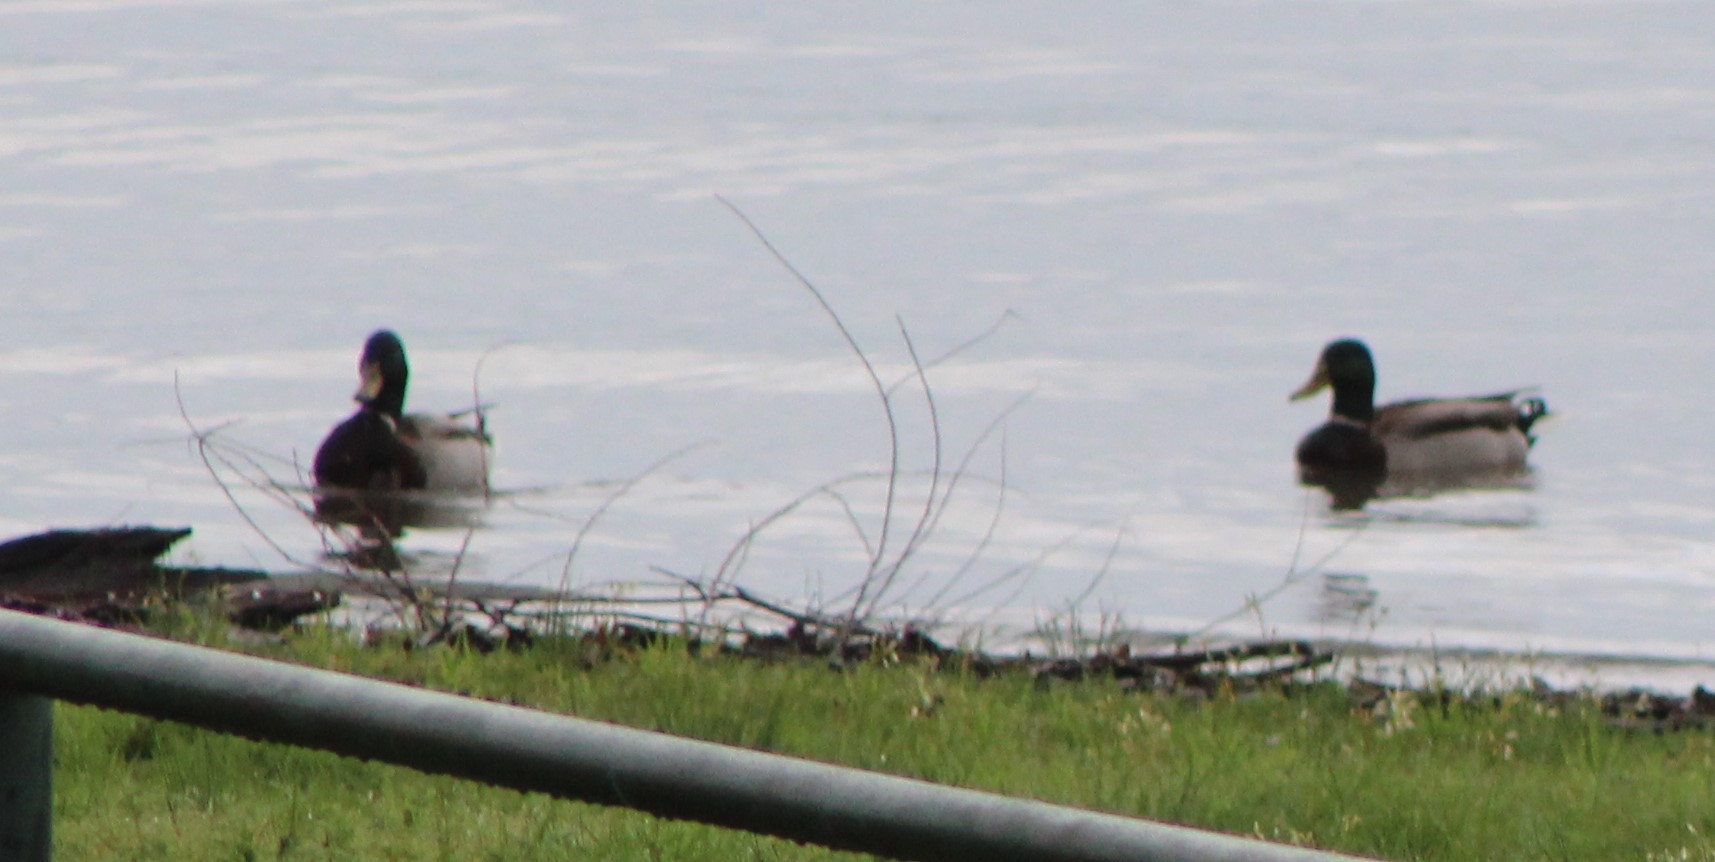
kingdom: Animalia
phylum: Chordata
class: Aves
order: Anseriformes
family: Anatidae
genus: Anas
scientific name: Anas platyrhynchos
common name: Mallard
